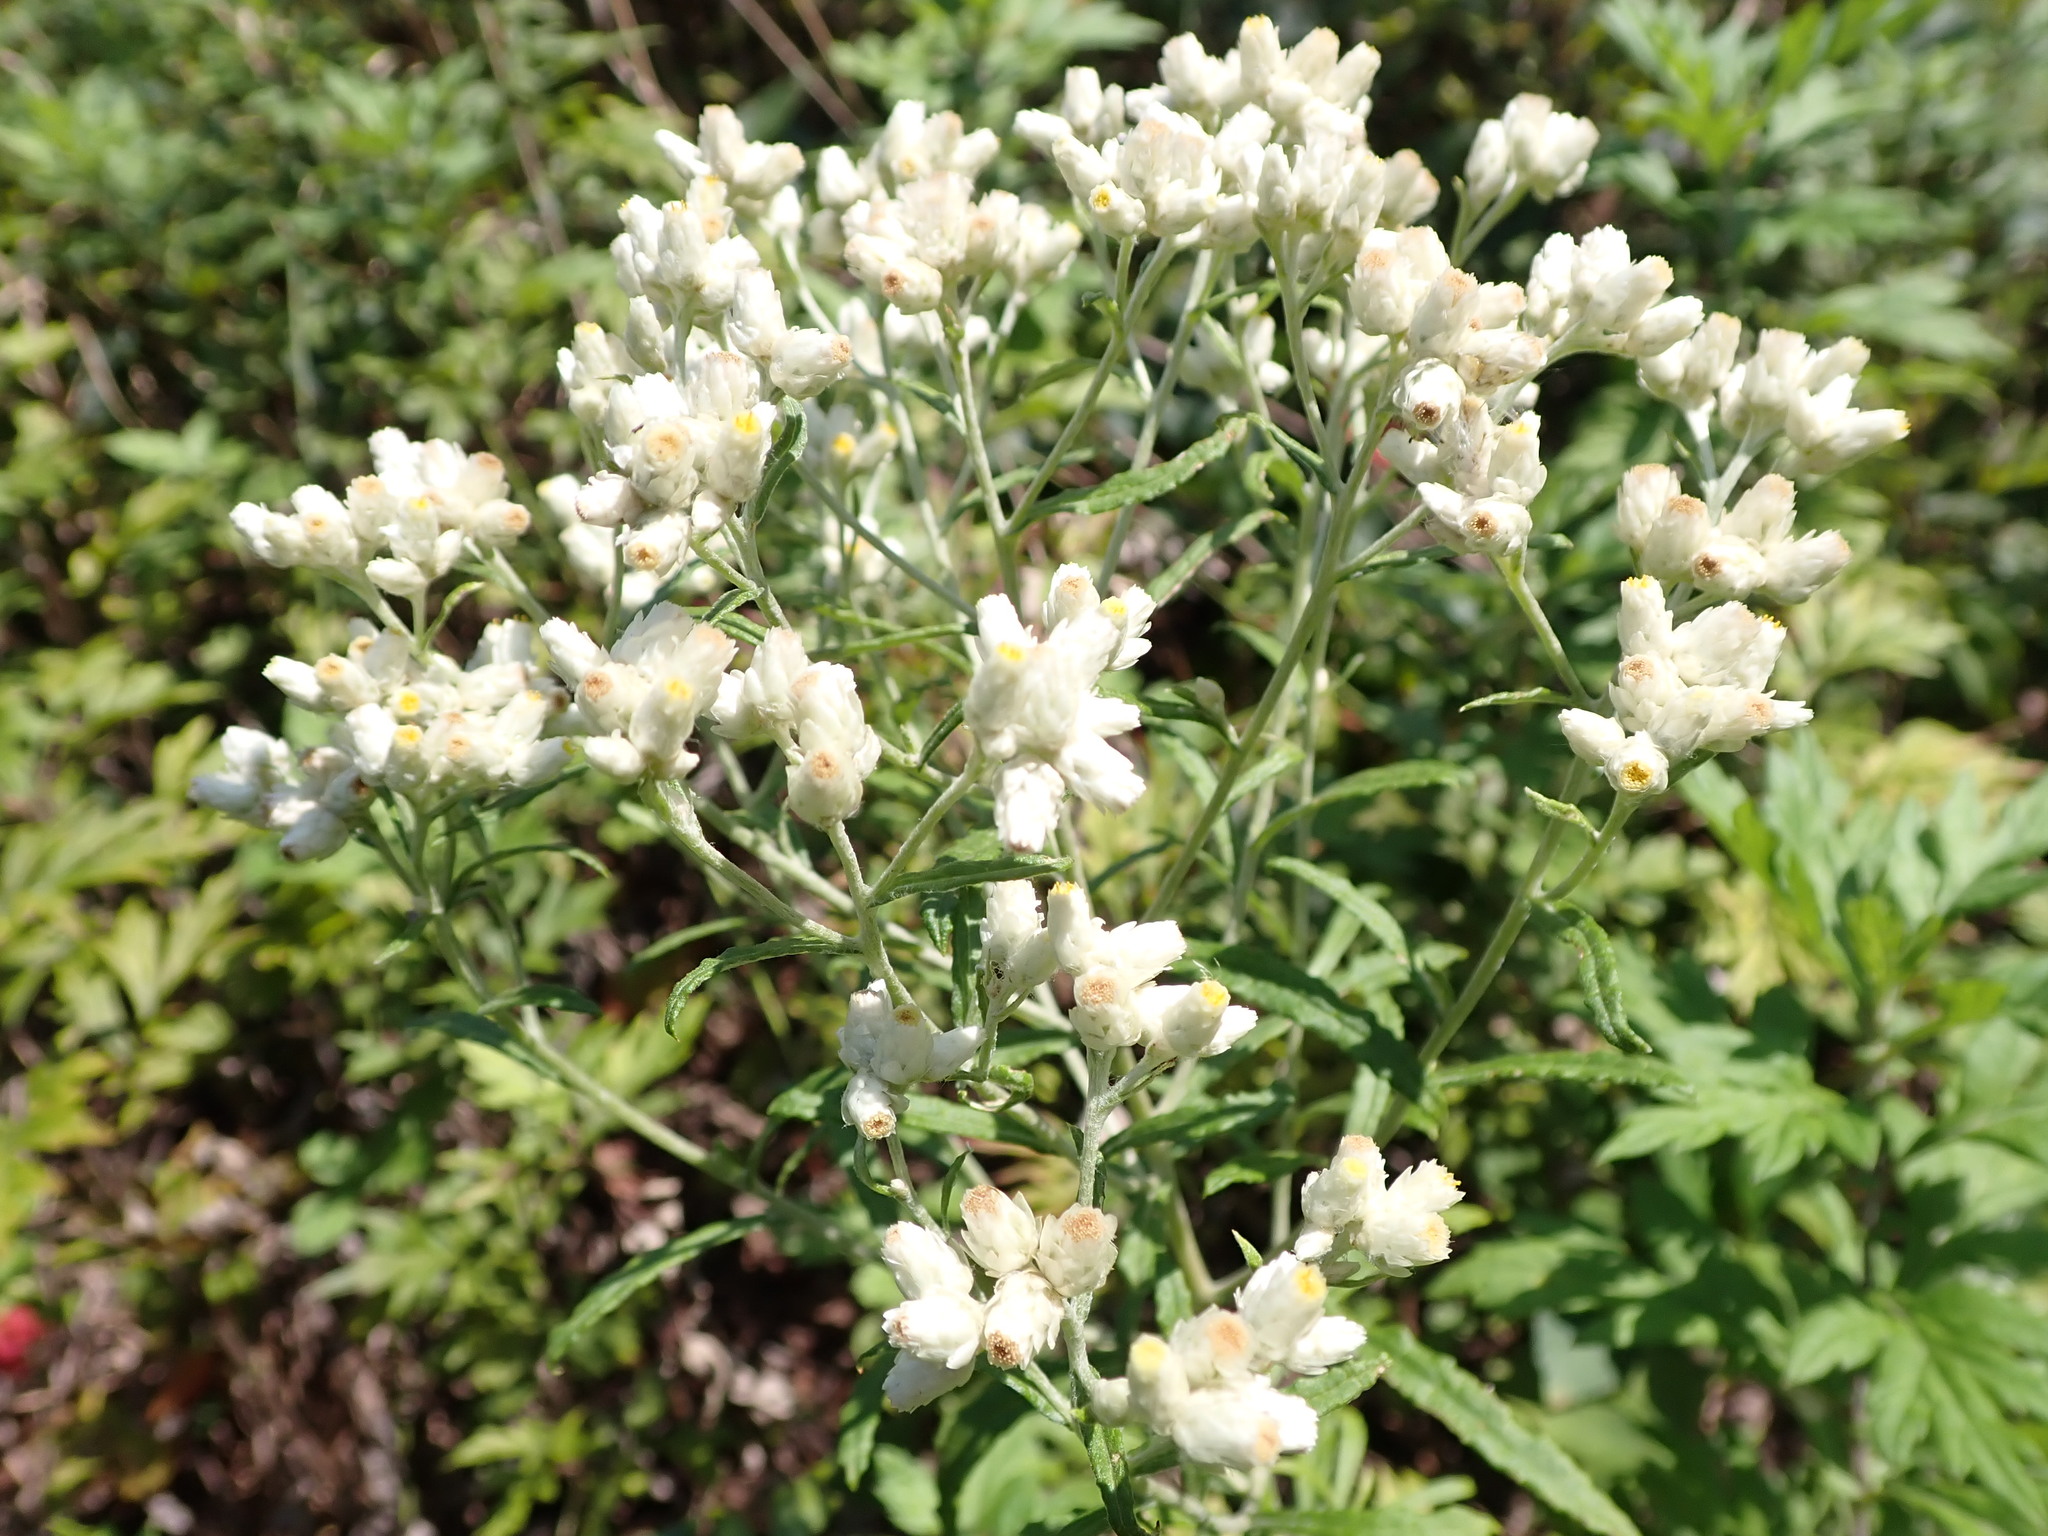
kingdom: Plantae
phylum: Tracheophyta
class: Magnoliopsida
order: Asterales
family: Asteraceae
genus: Pseudognaphalium
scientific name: Pseudognaphalium obtusifolium
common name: Eastern rabbit-tobacco
